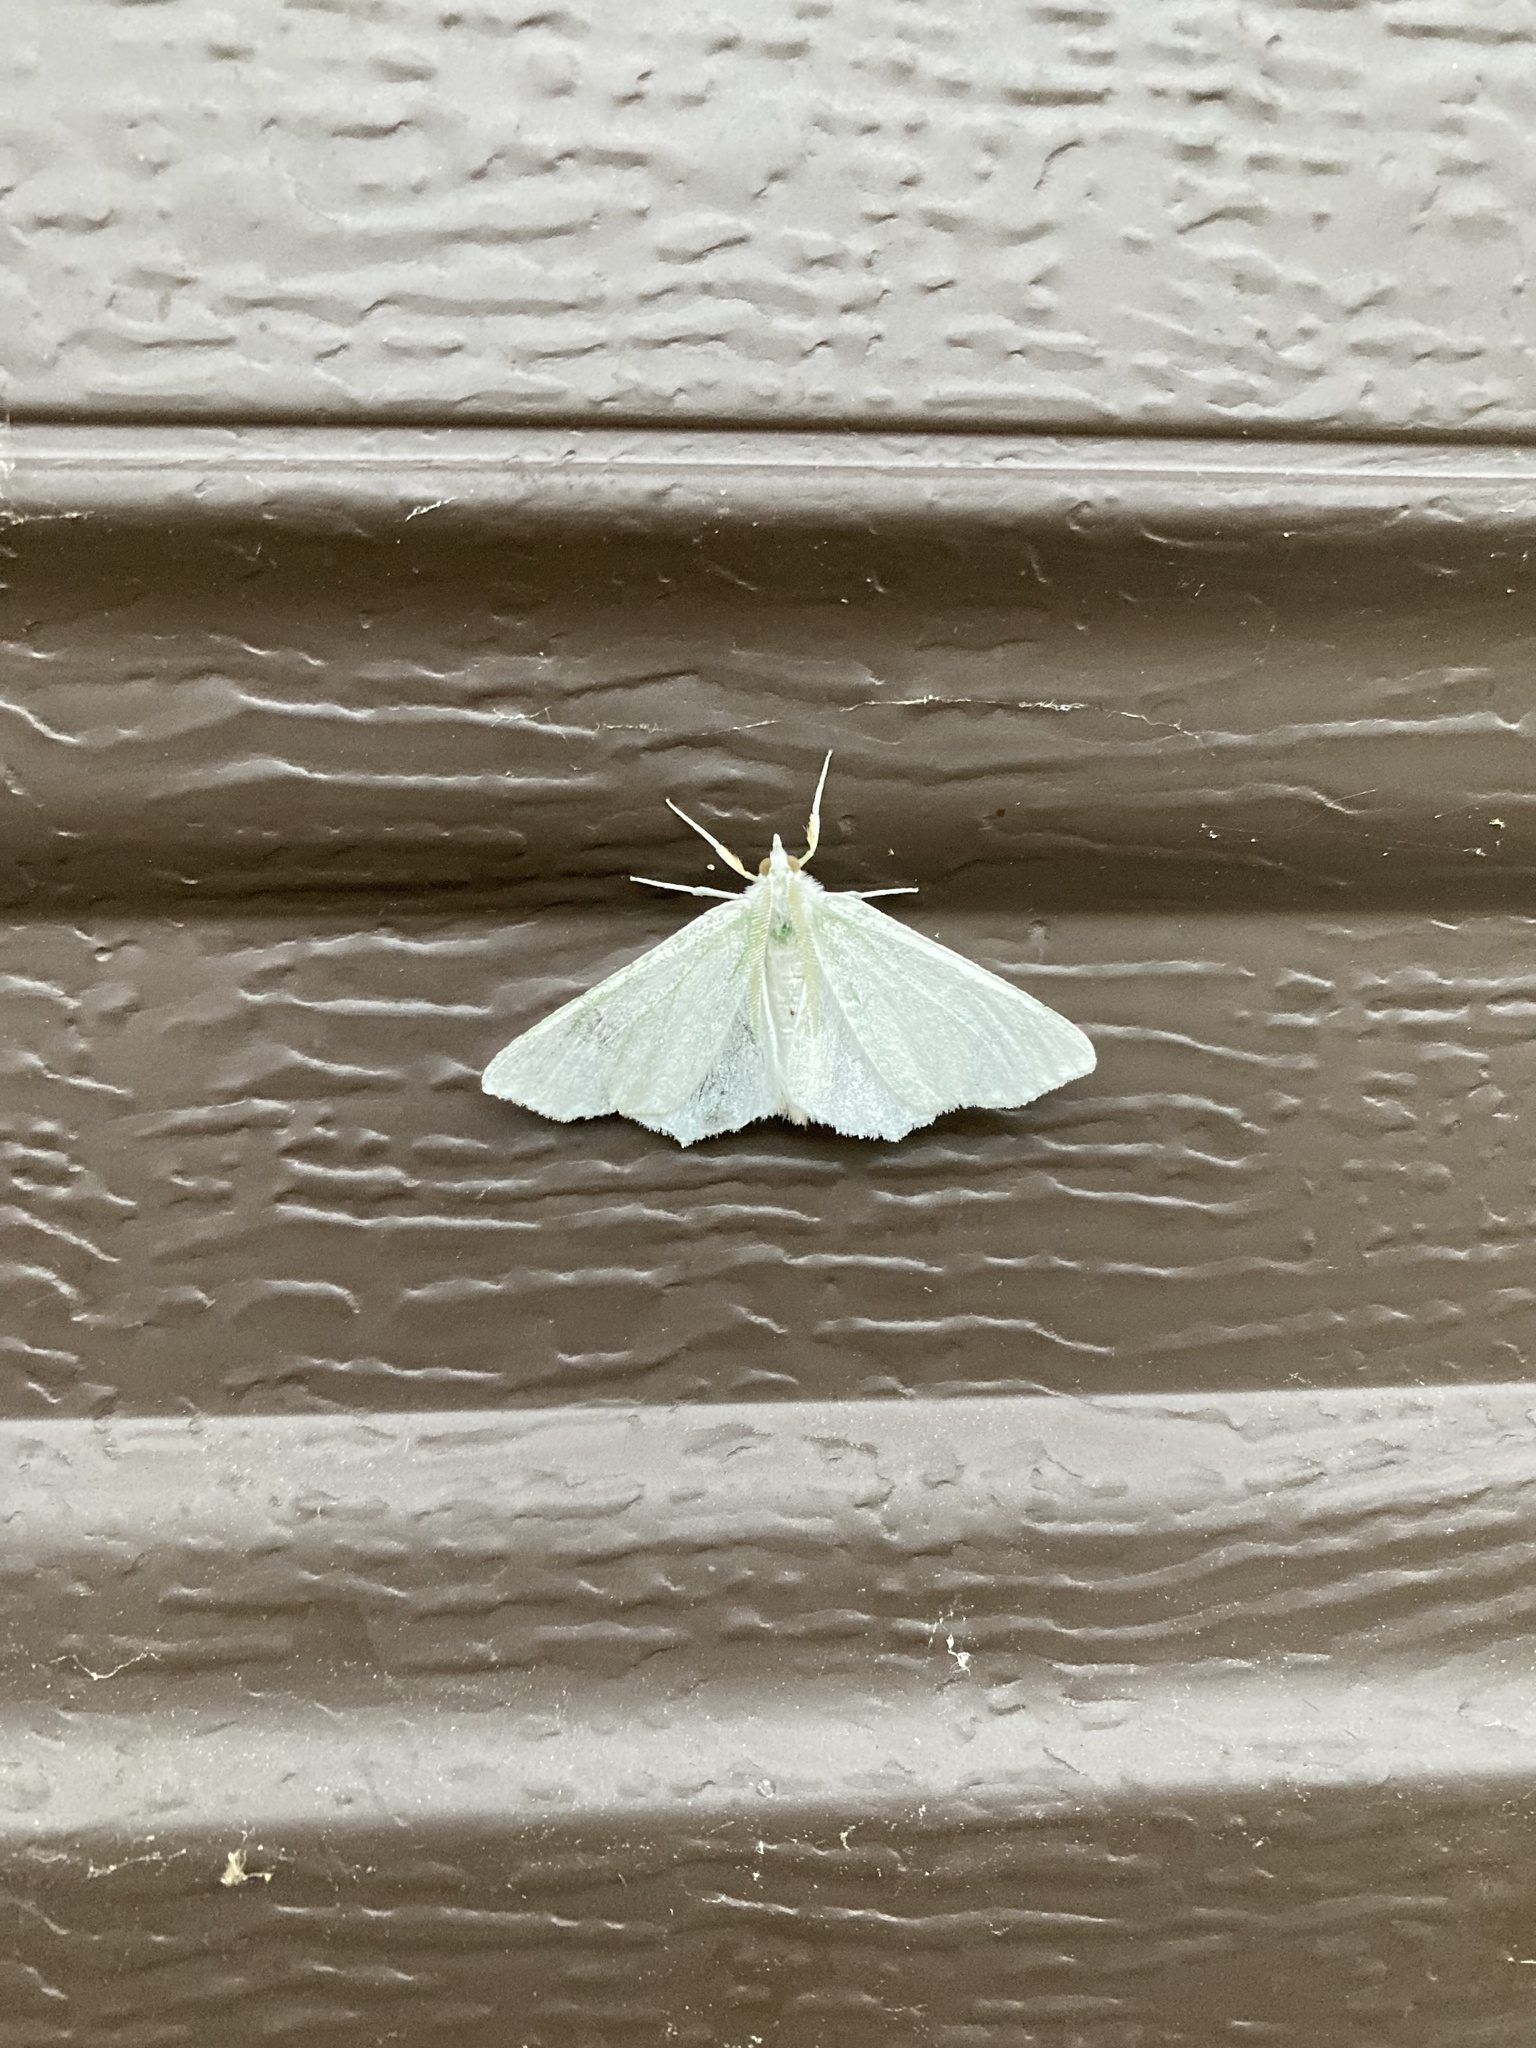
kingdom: Animalia
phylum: Arthropoda
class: Insecta
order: Lepidoptera
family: Geometridae
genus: Ennomos
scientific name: Ennomos subsignaria
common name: Elm spanworm
